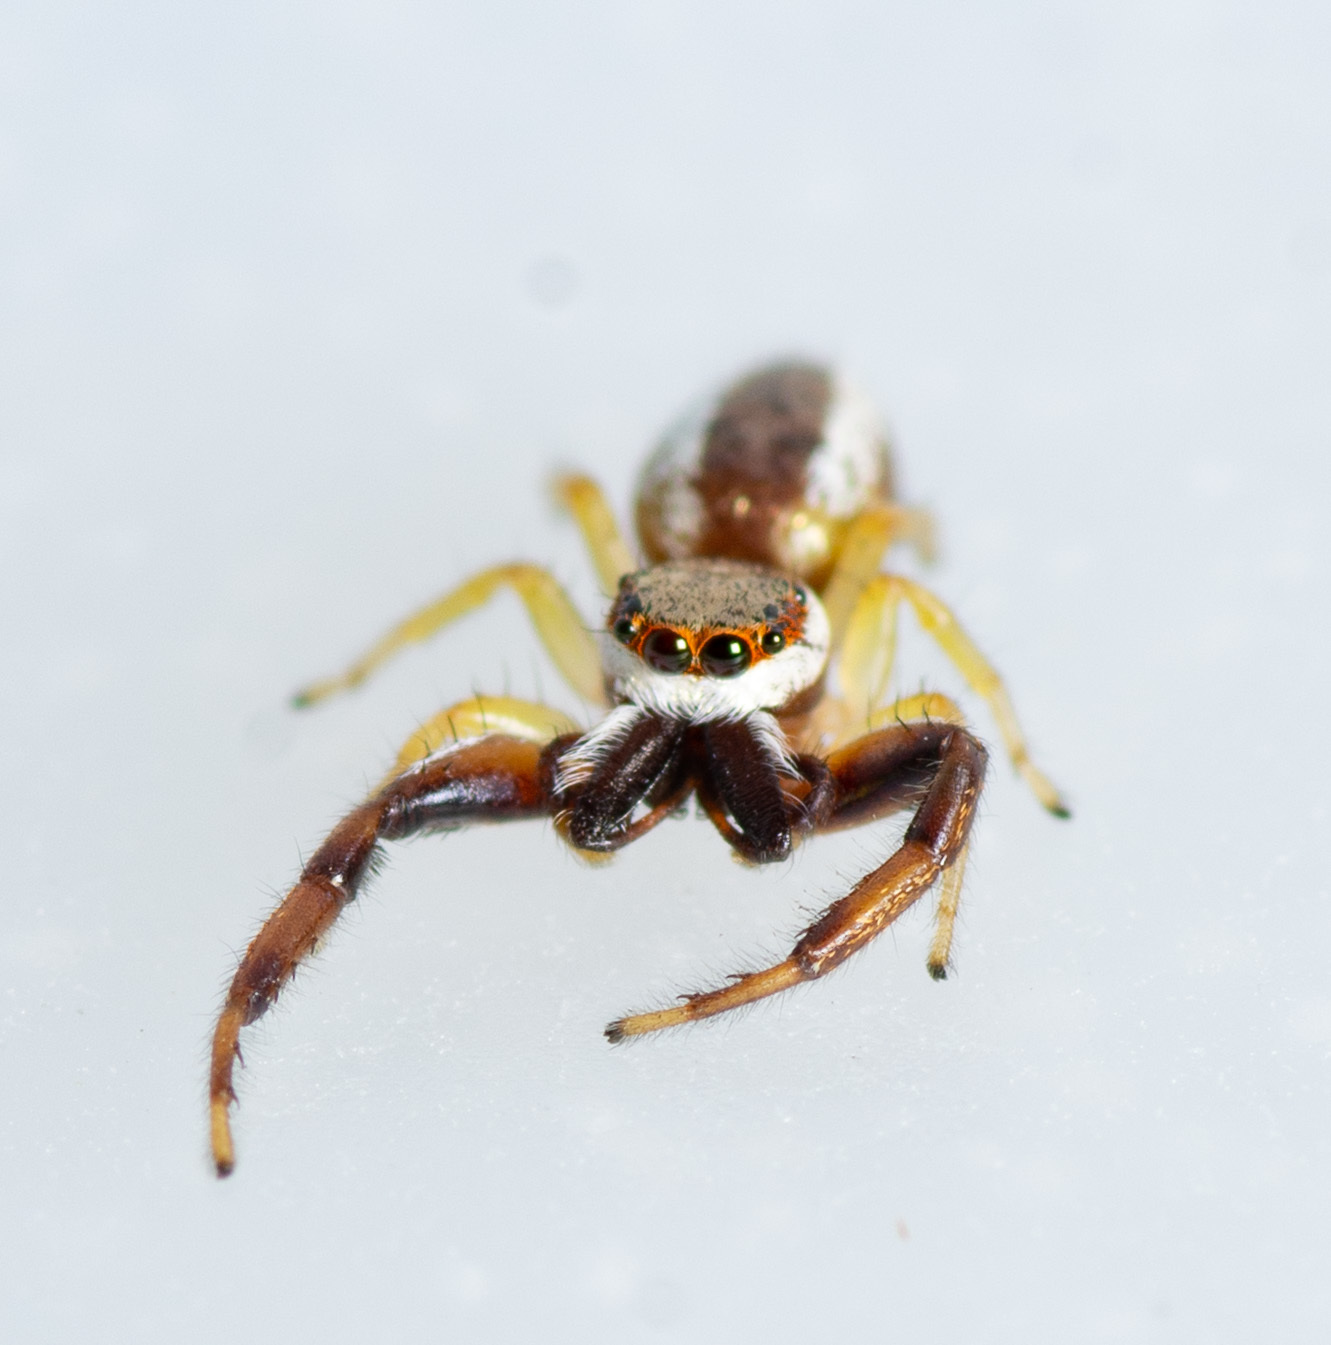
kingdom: Animalia
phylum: Arthropoda
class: Arachnida
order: Araneae
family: Salticidae
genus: Hentzia
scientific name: Hentzia palmarum
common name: Common hentz jumping spider
